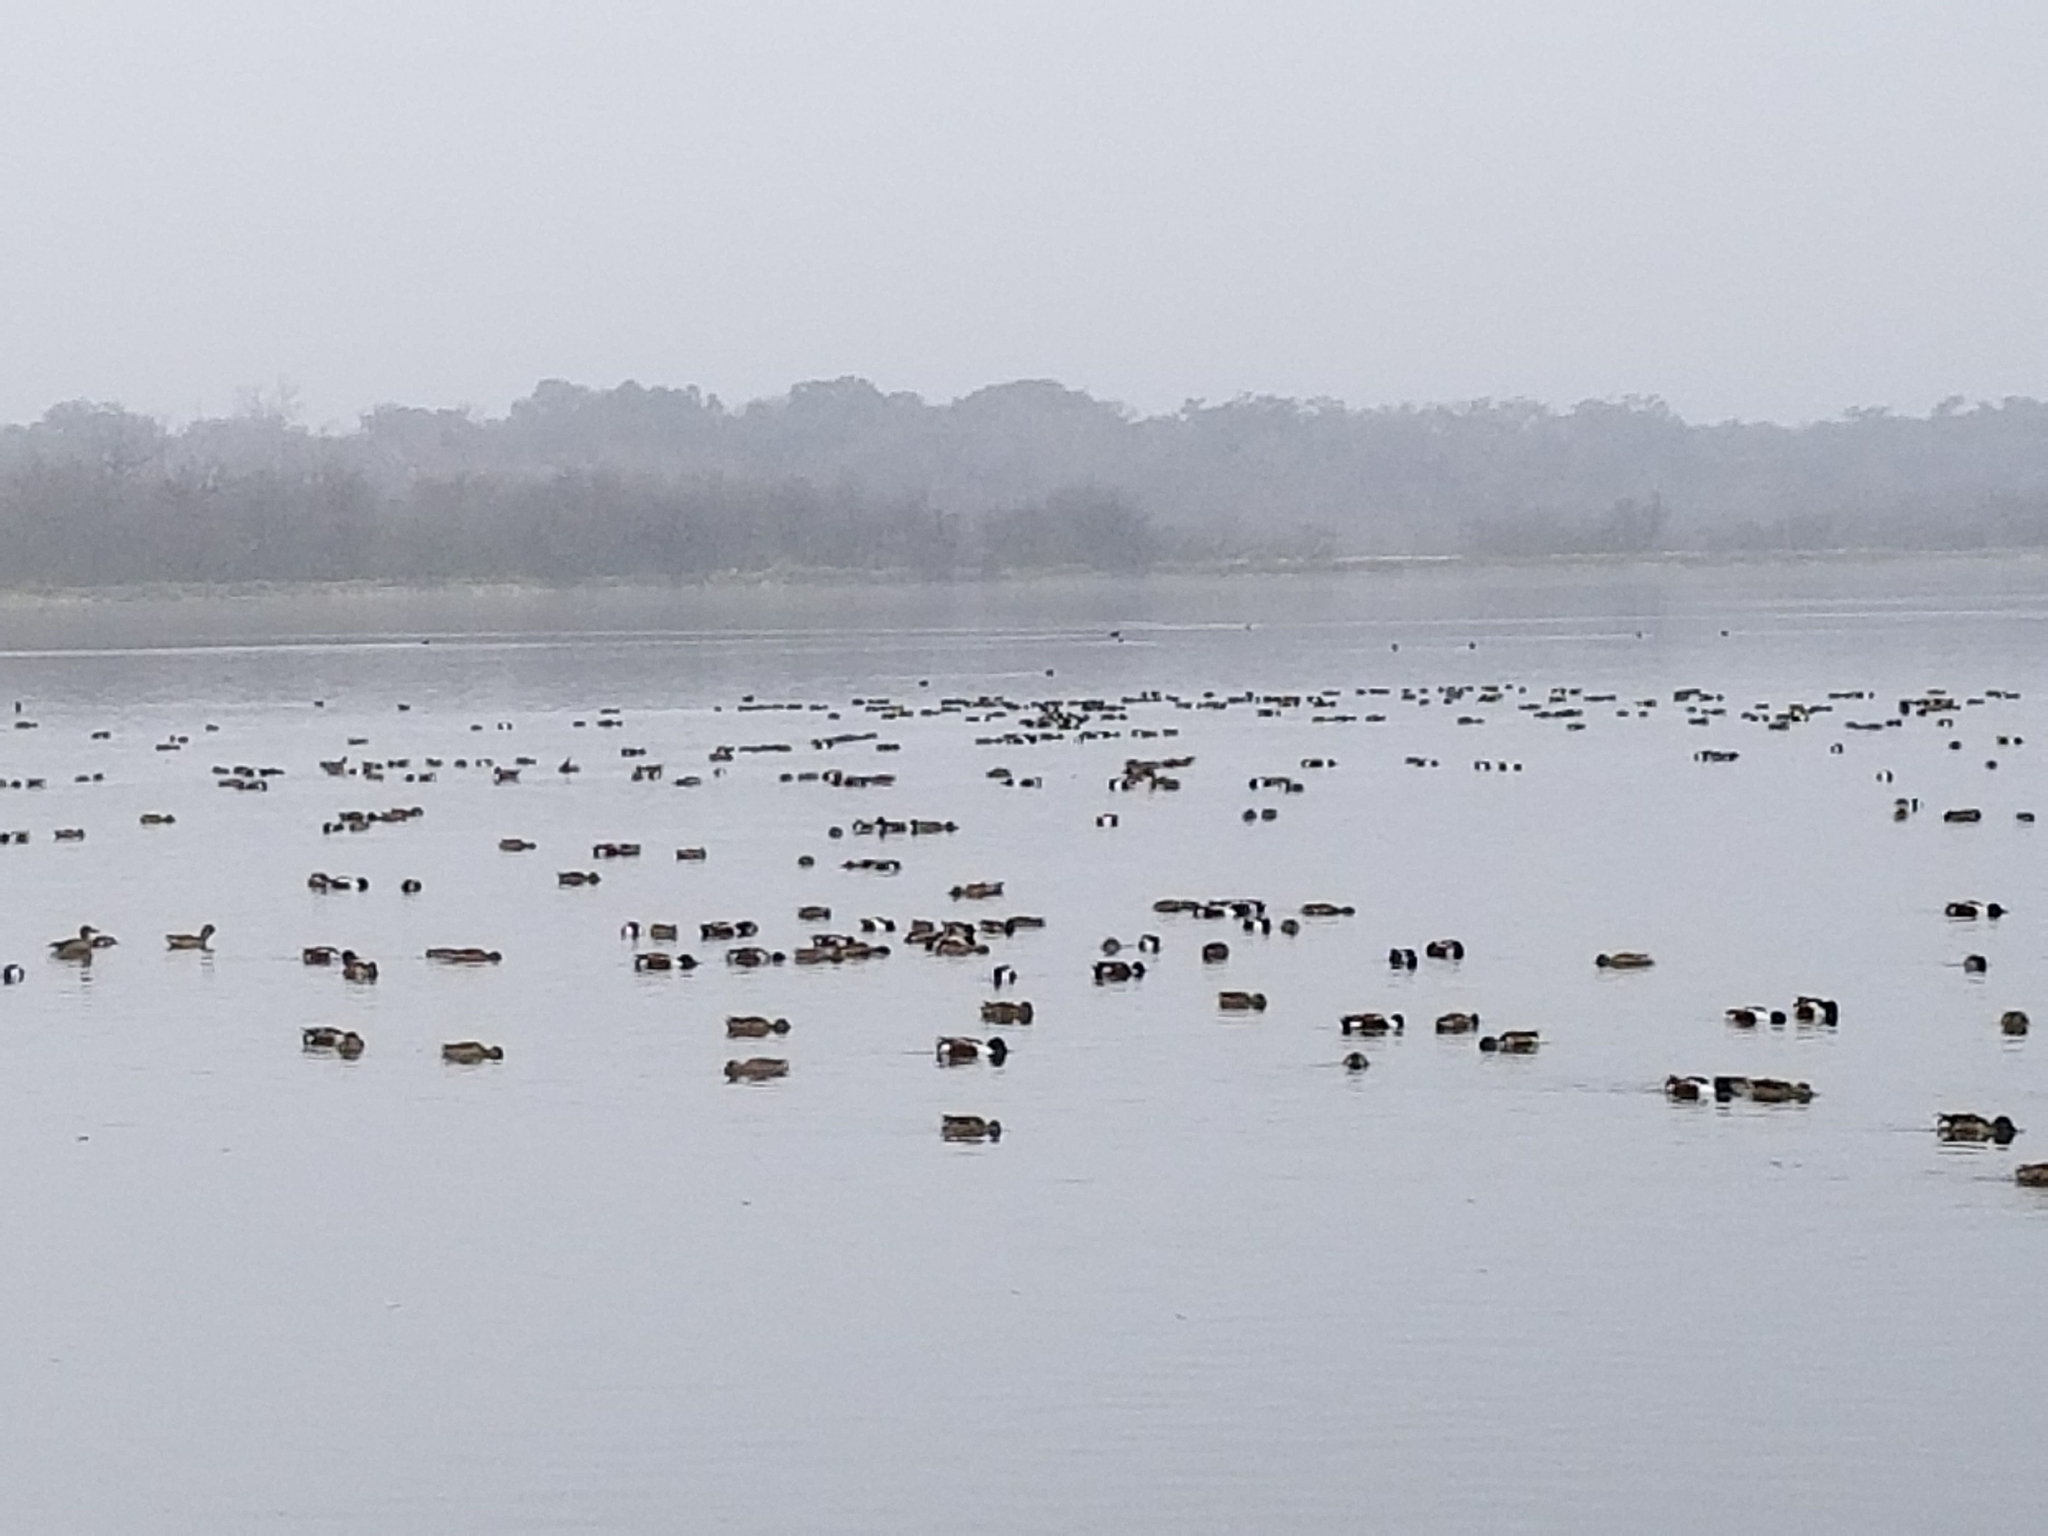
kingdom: Animalia
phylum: Chordata
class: Aves
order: Anseriformes
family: Anatidae
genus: Spatula
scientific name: Spatula clypeata
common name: Northern shoveler
